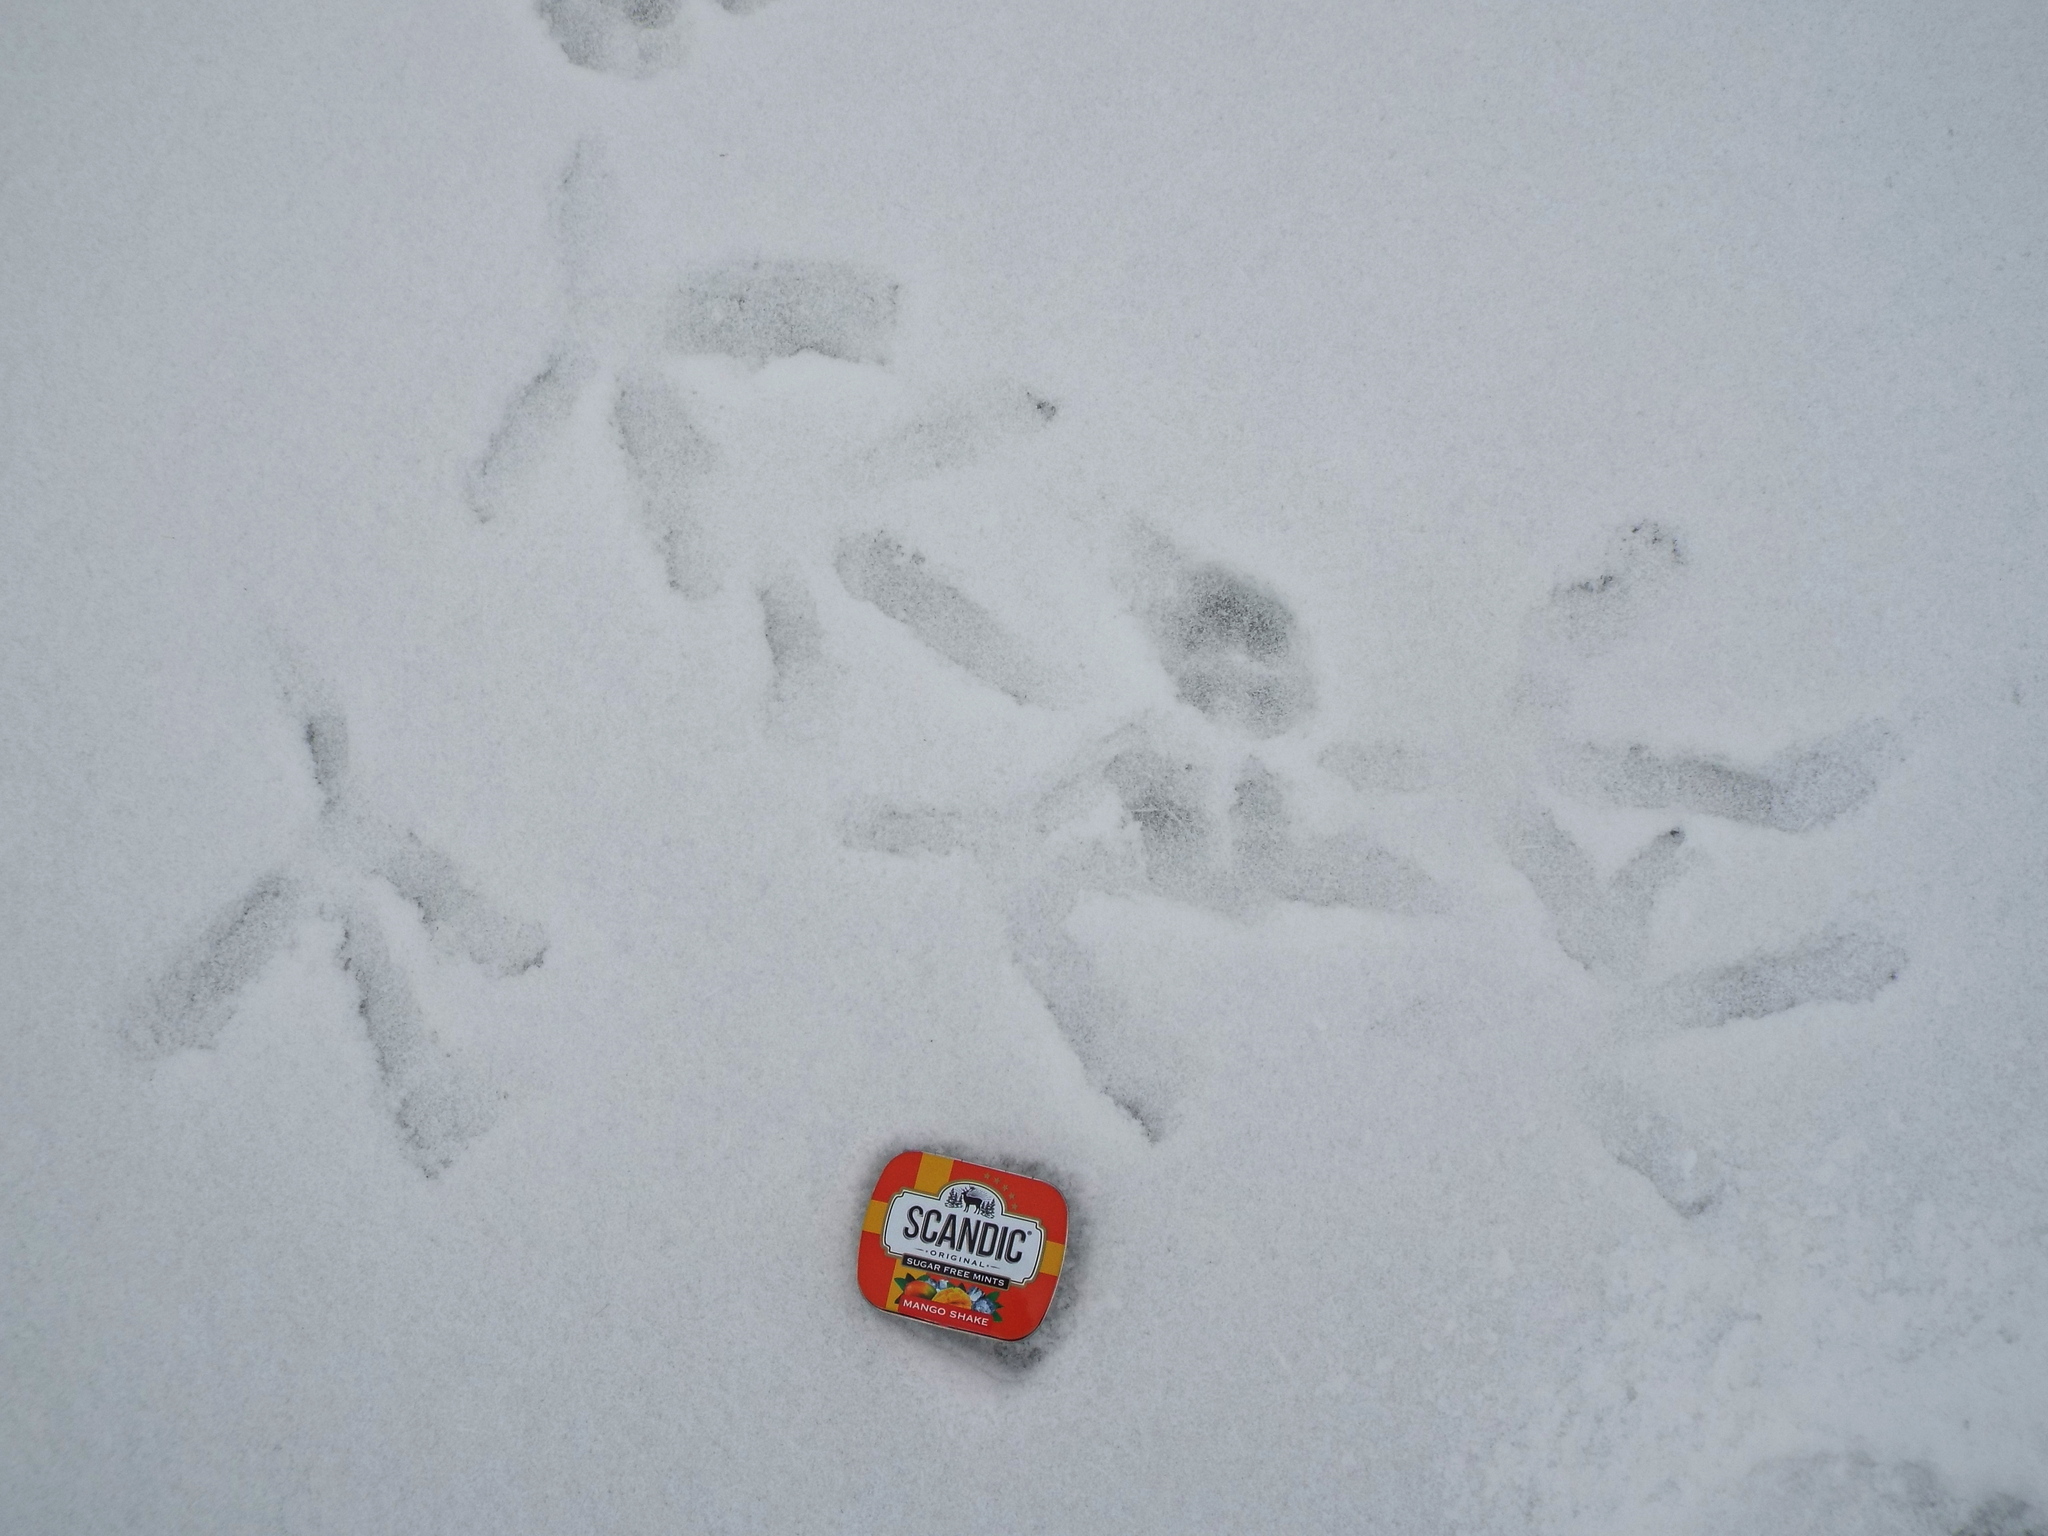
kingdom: Animalia
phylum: Chordata
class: Aves
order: Pelecaniformes
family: Ardeidae
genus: Ardea
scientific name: Ardea cinerea
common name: Grey heron
